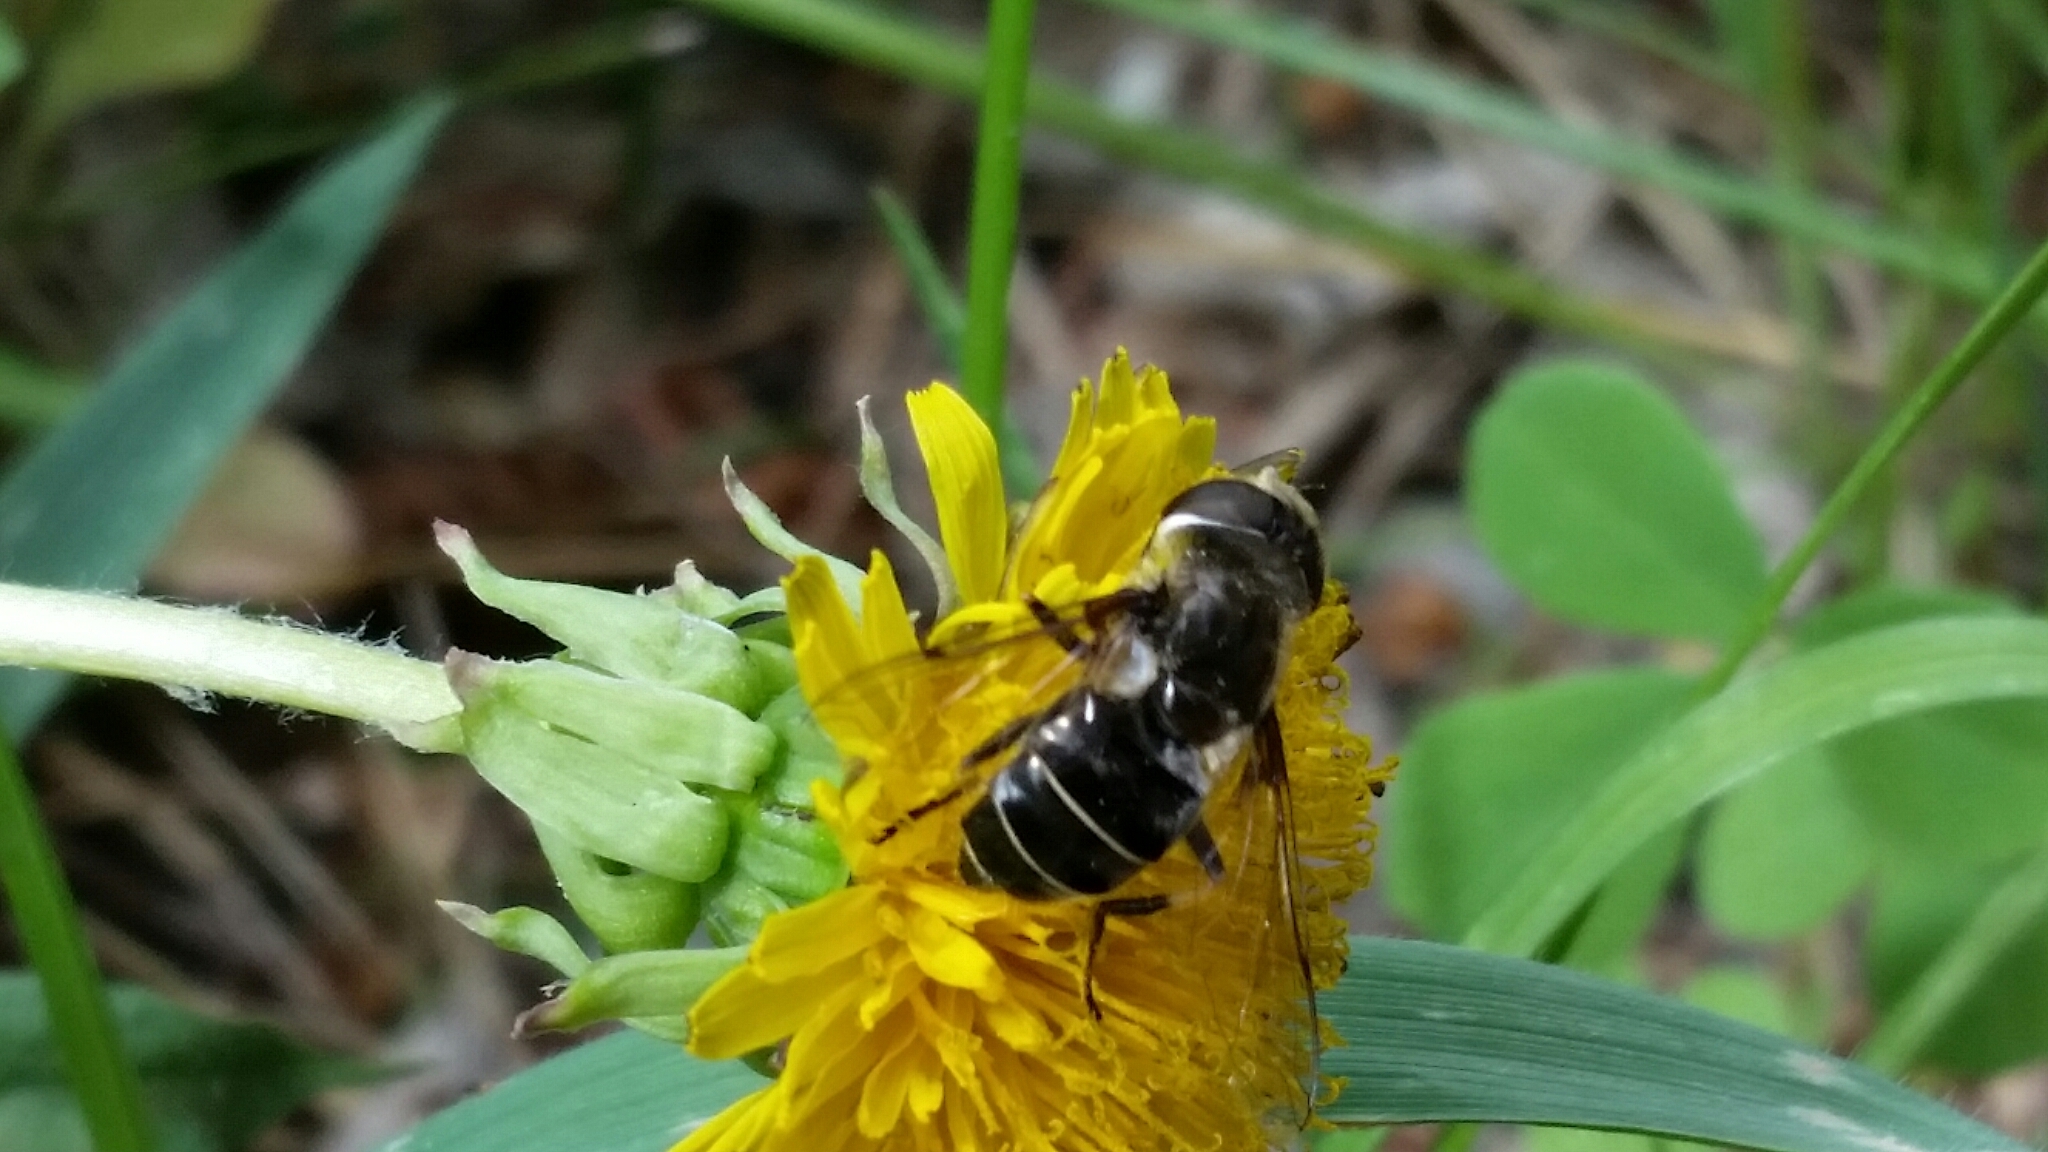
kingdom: Animalia
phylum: Arthropoda
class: Insecta
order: Diptera
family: Syrphidae
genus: Eristalis
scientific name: Eristalis dimidiata
